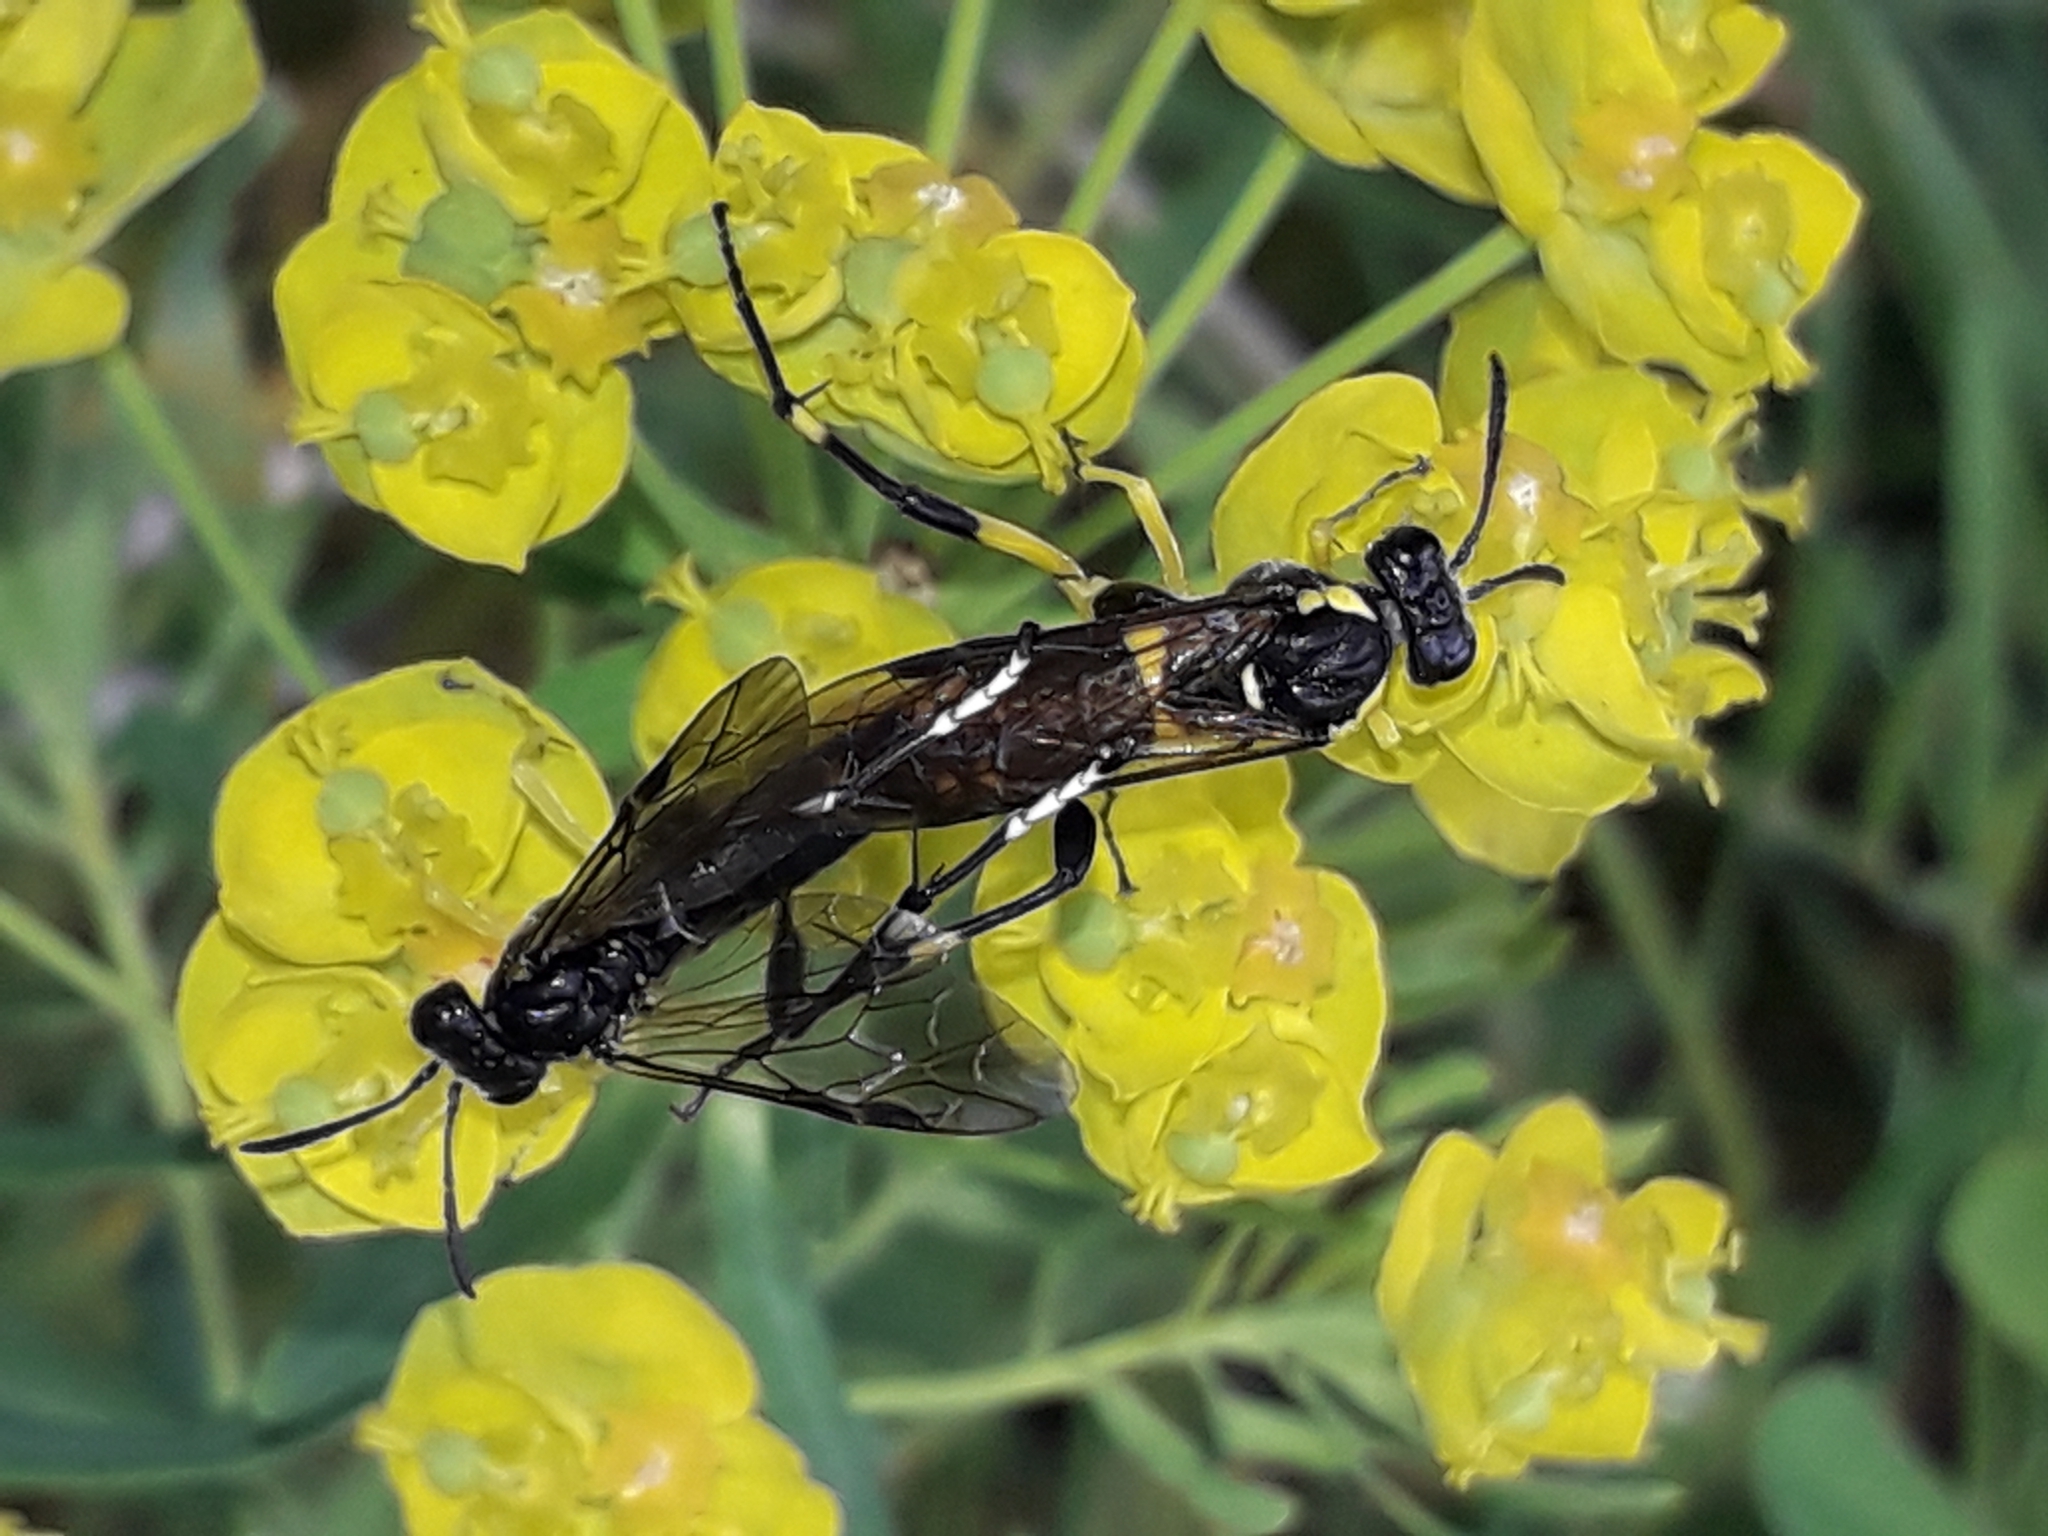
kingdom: Animalia
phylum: Arthropoda
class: Insecta
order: Hymenoptera
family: Tenthredinidae
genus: Macrophya
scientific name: Macrophya montana
